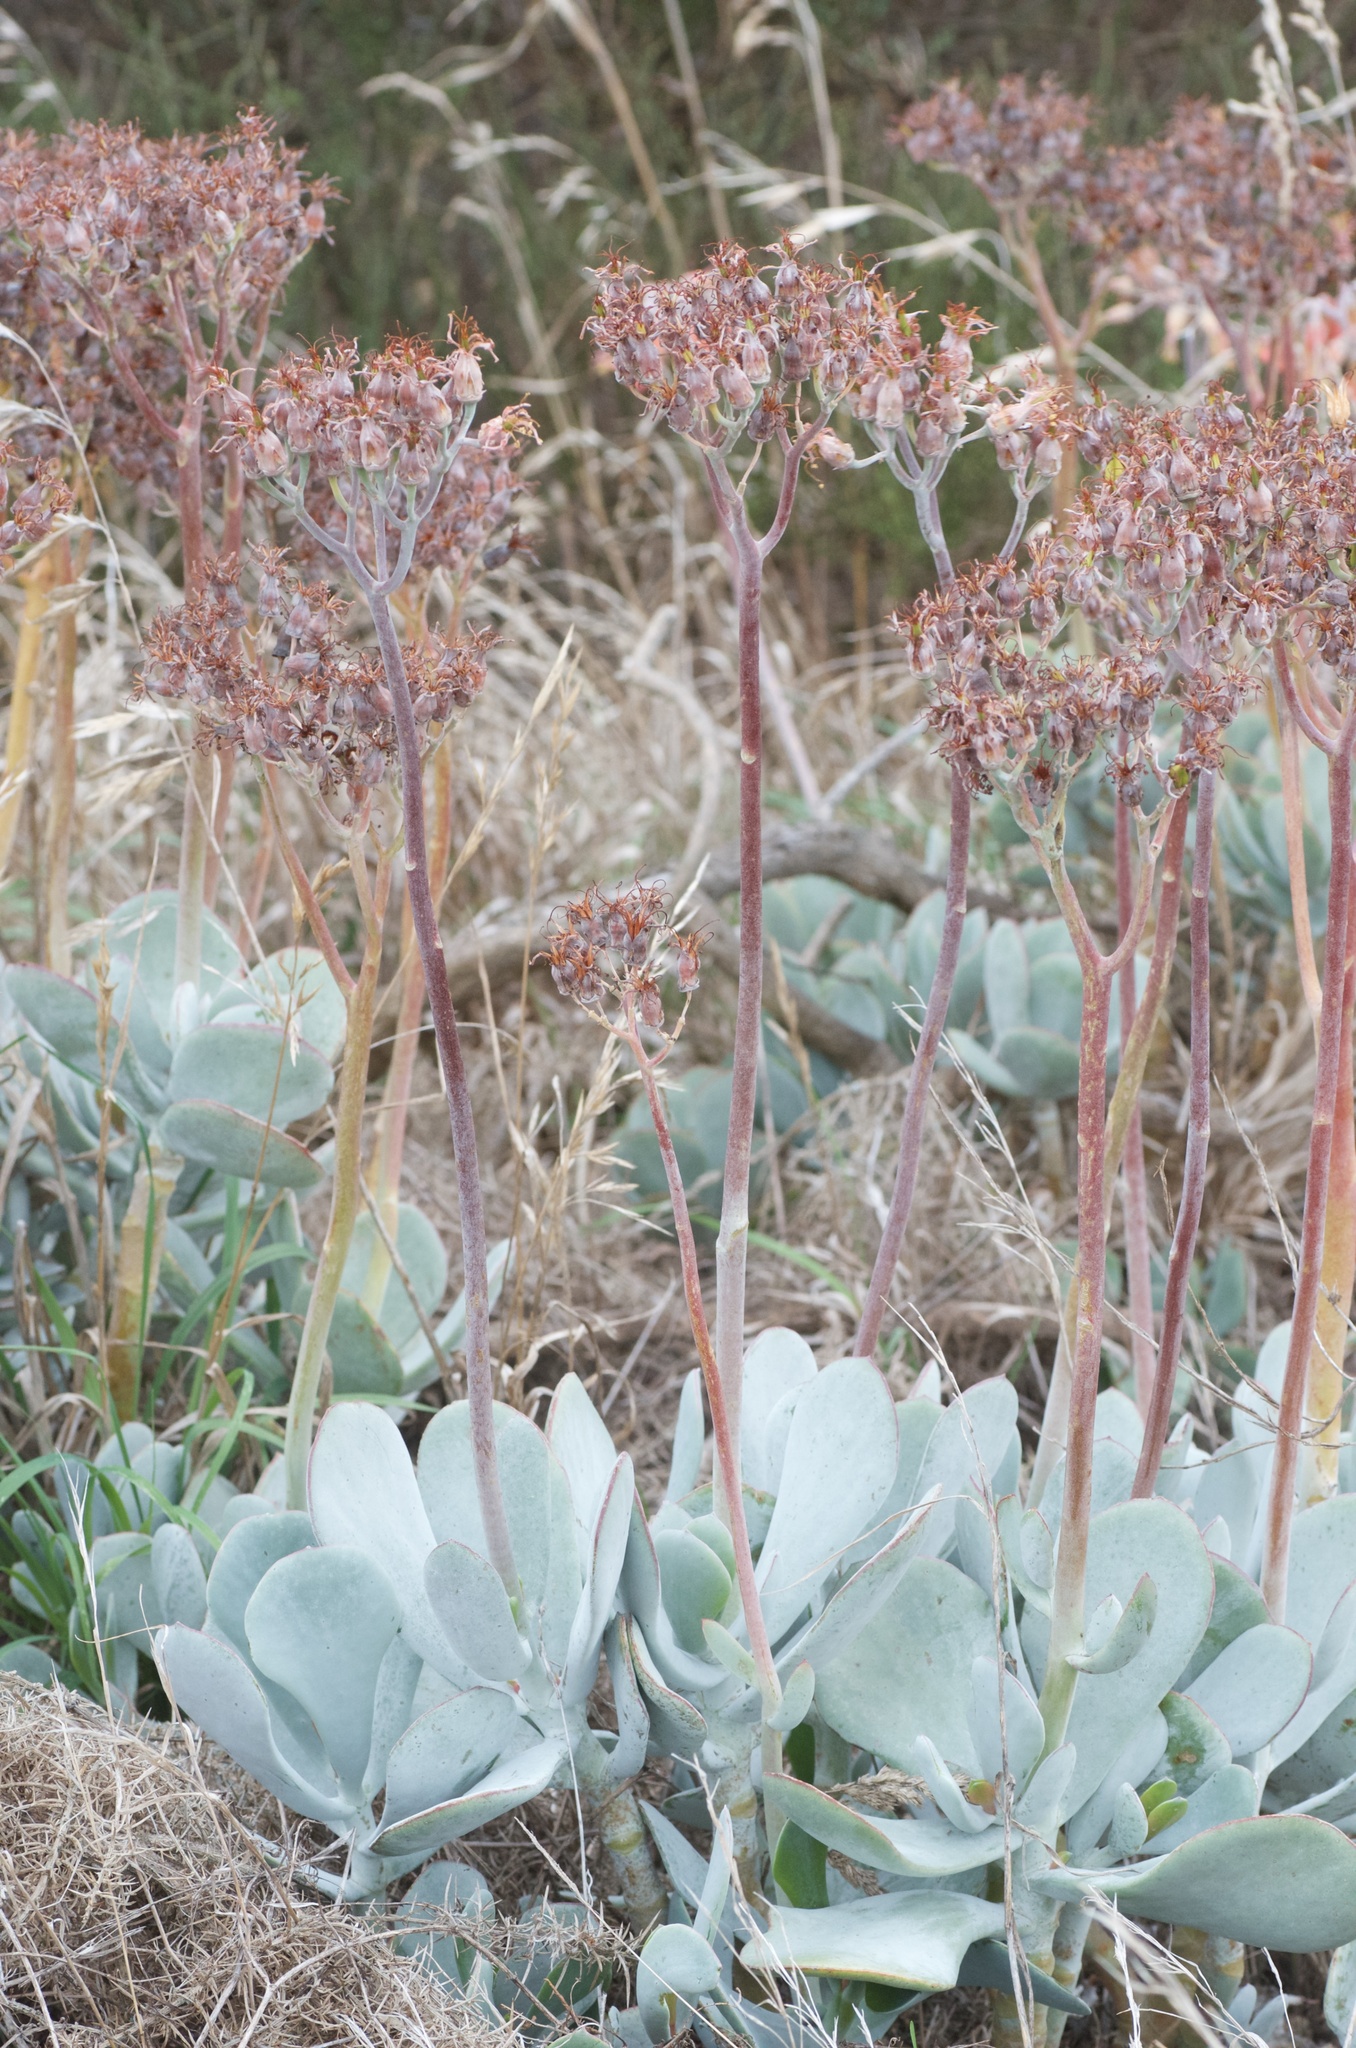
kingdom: Plantae
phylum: Tracheophyta
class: Magnoliopsida
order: Saxifragales
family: Crassulaceae
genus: Cotyledon
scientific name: Cotyledon orbiculata
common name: Pig's ear
